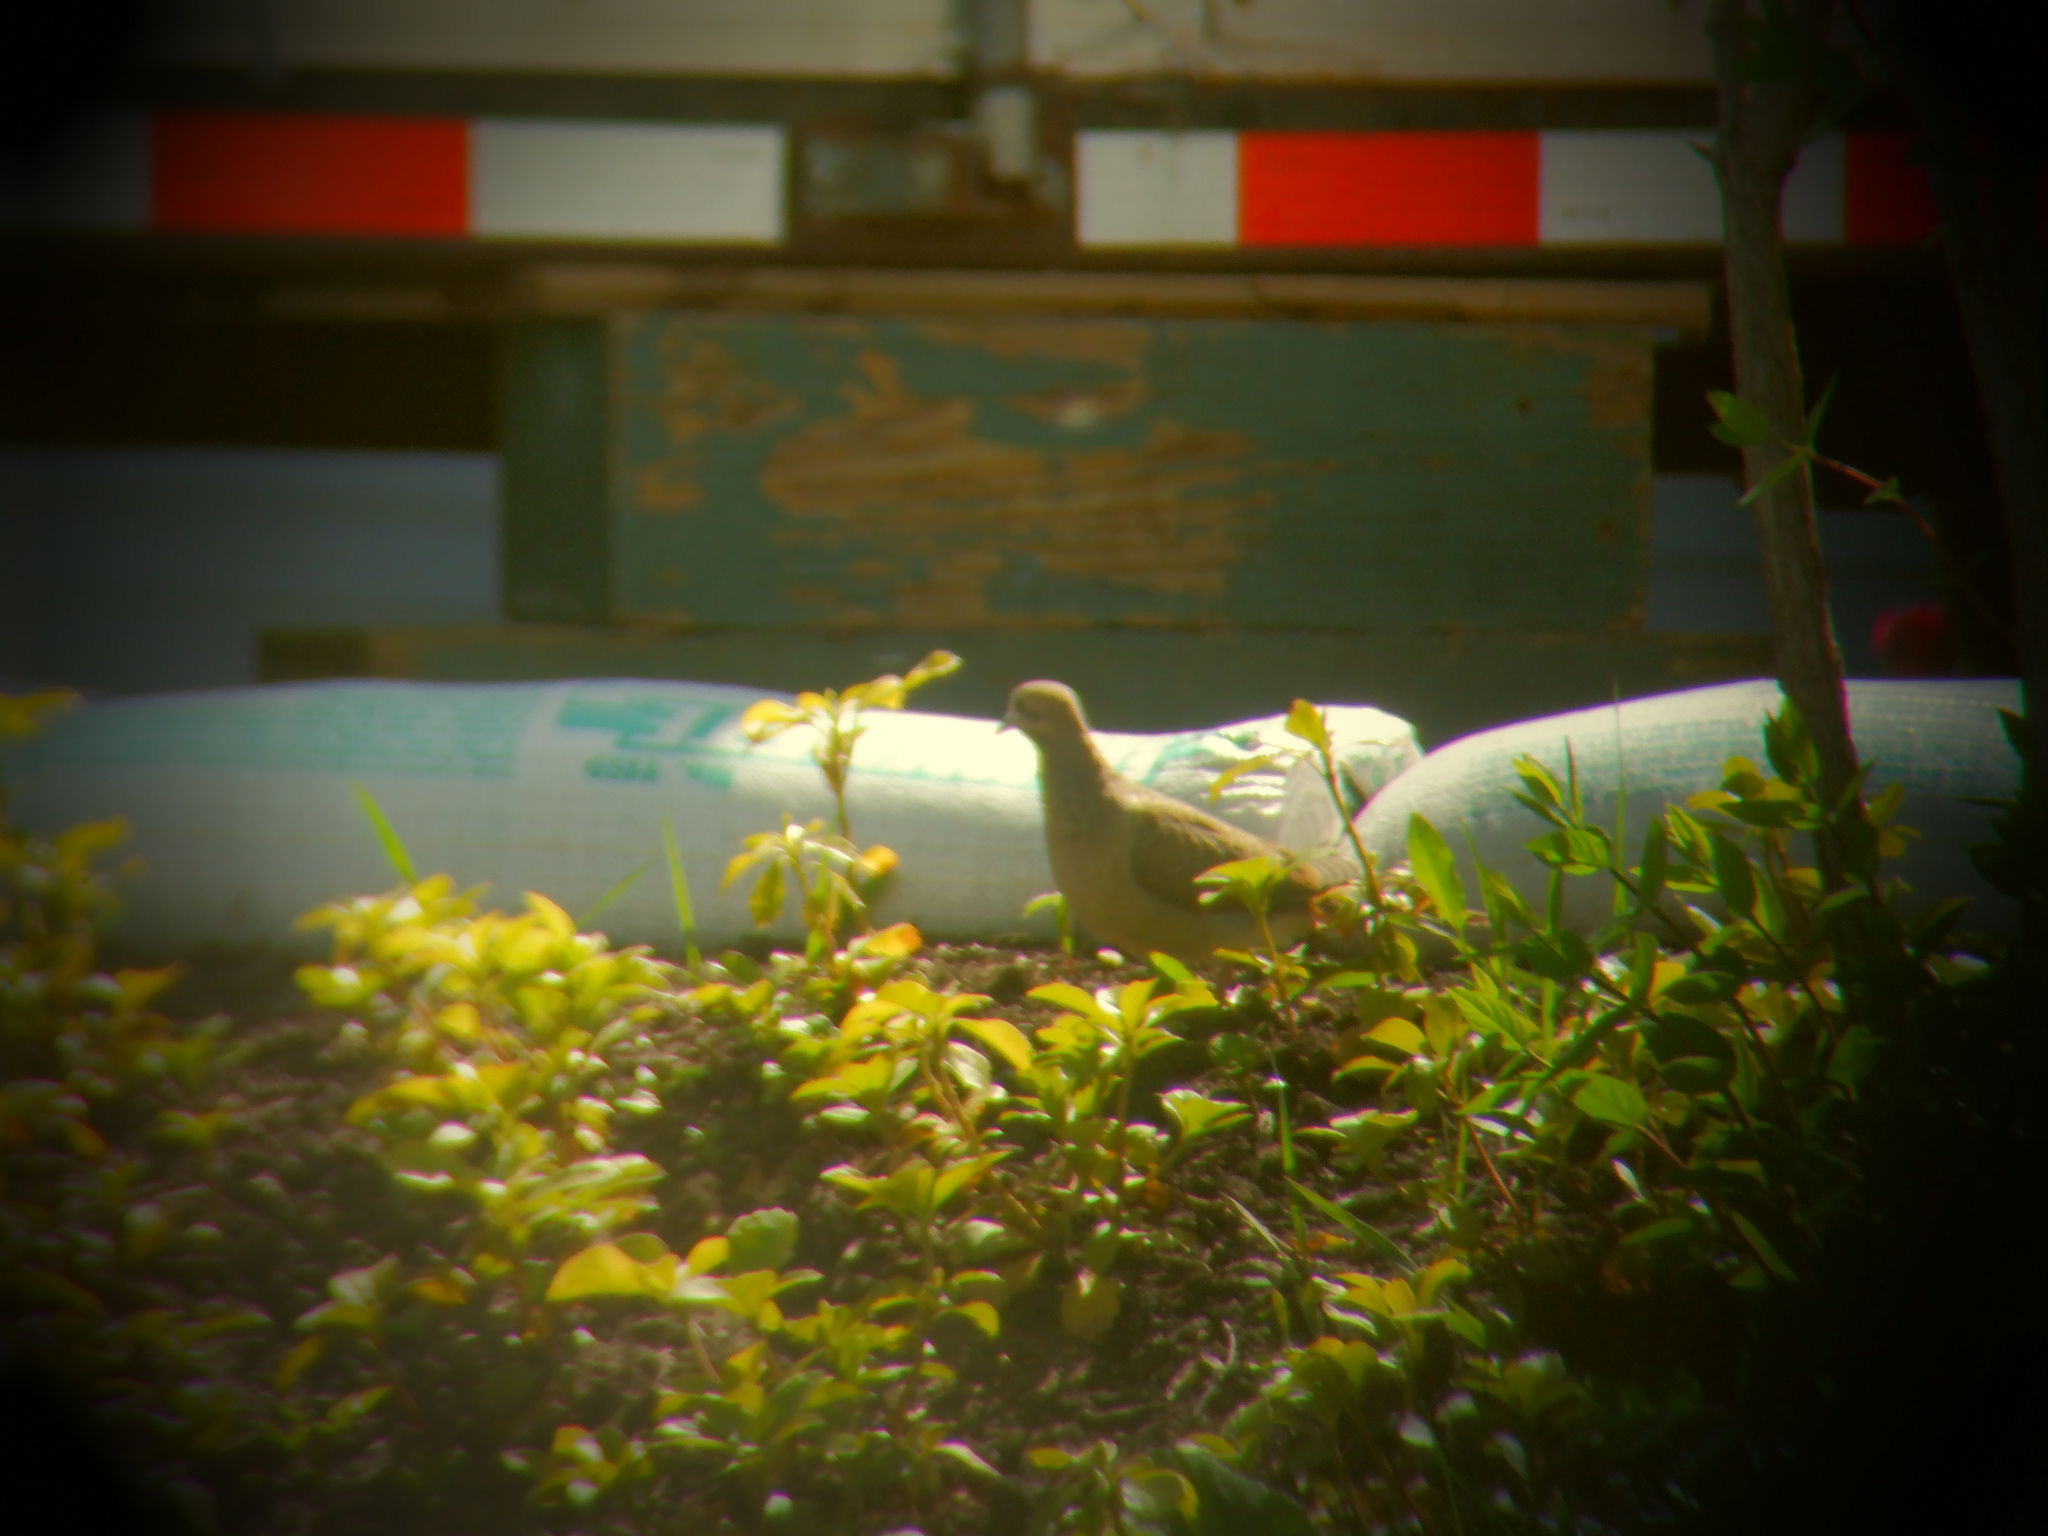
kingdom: Animalia
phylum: Chordata
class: Aves
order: Columbiformes
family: Columbidae
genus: Zenaida
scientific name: Zenaida macroura
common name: Mourning dove
